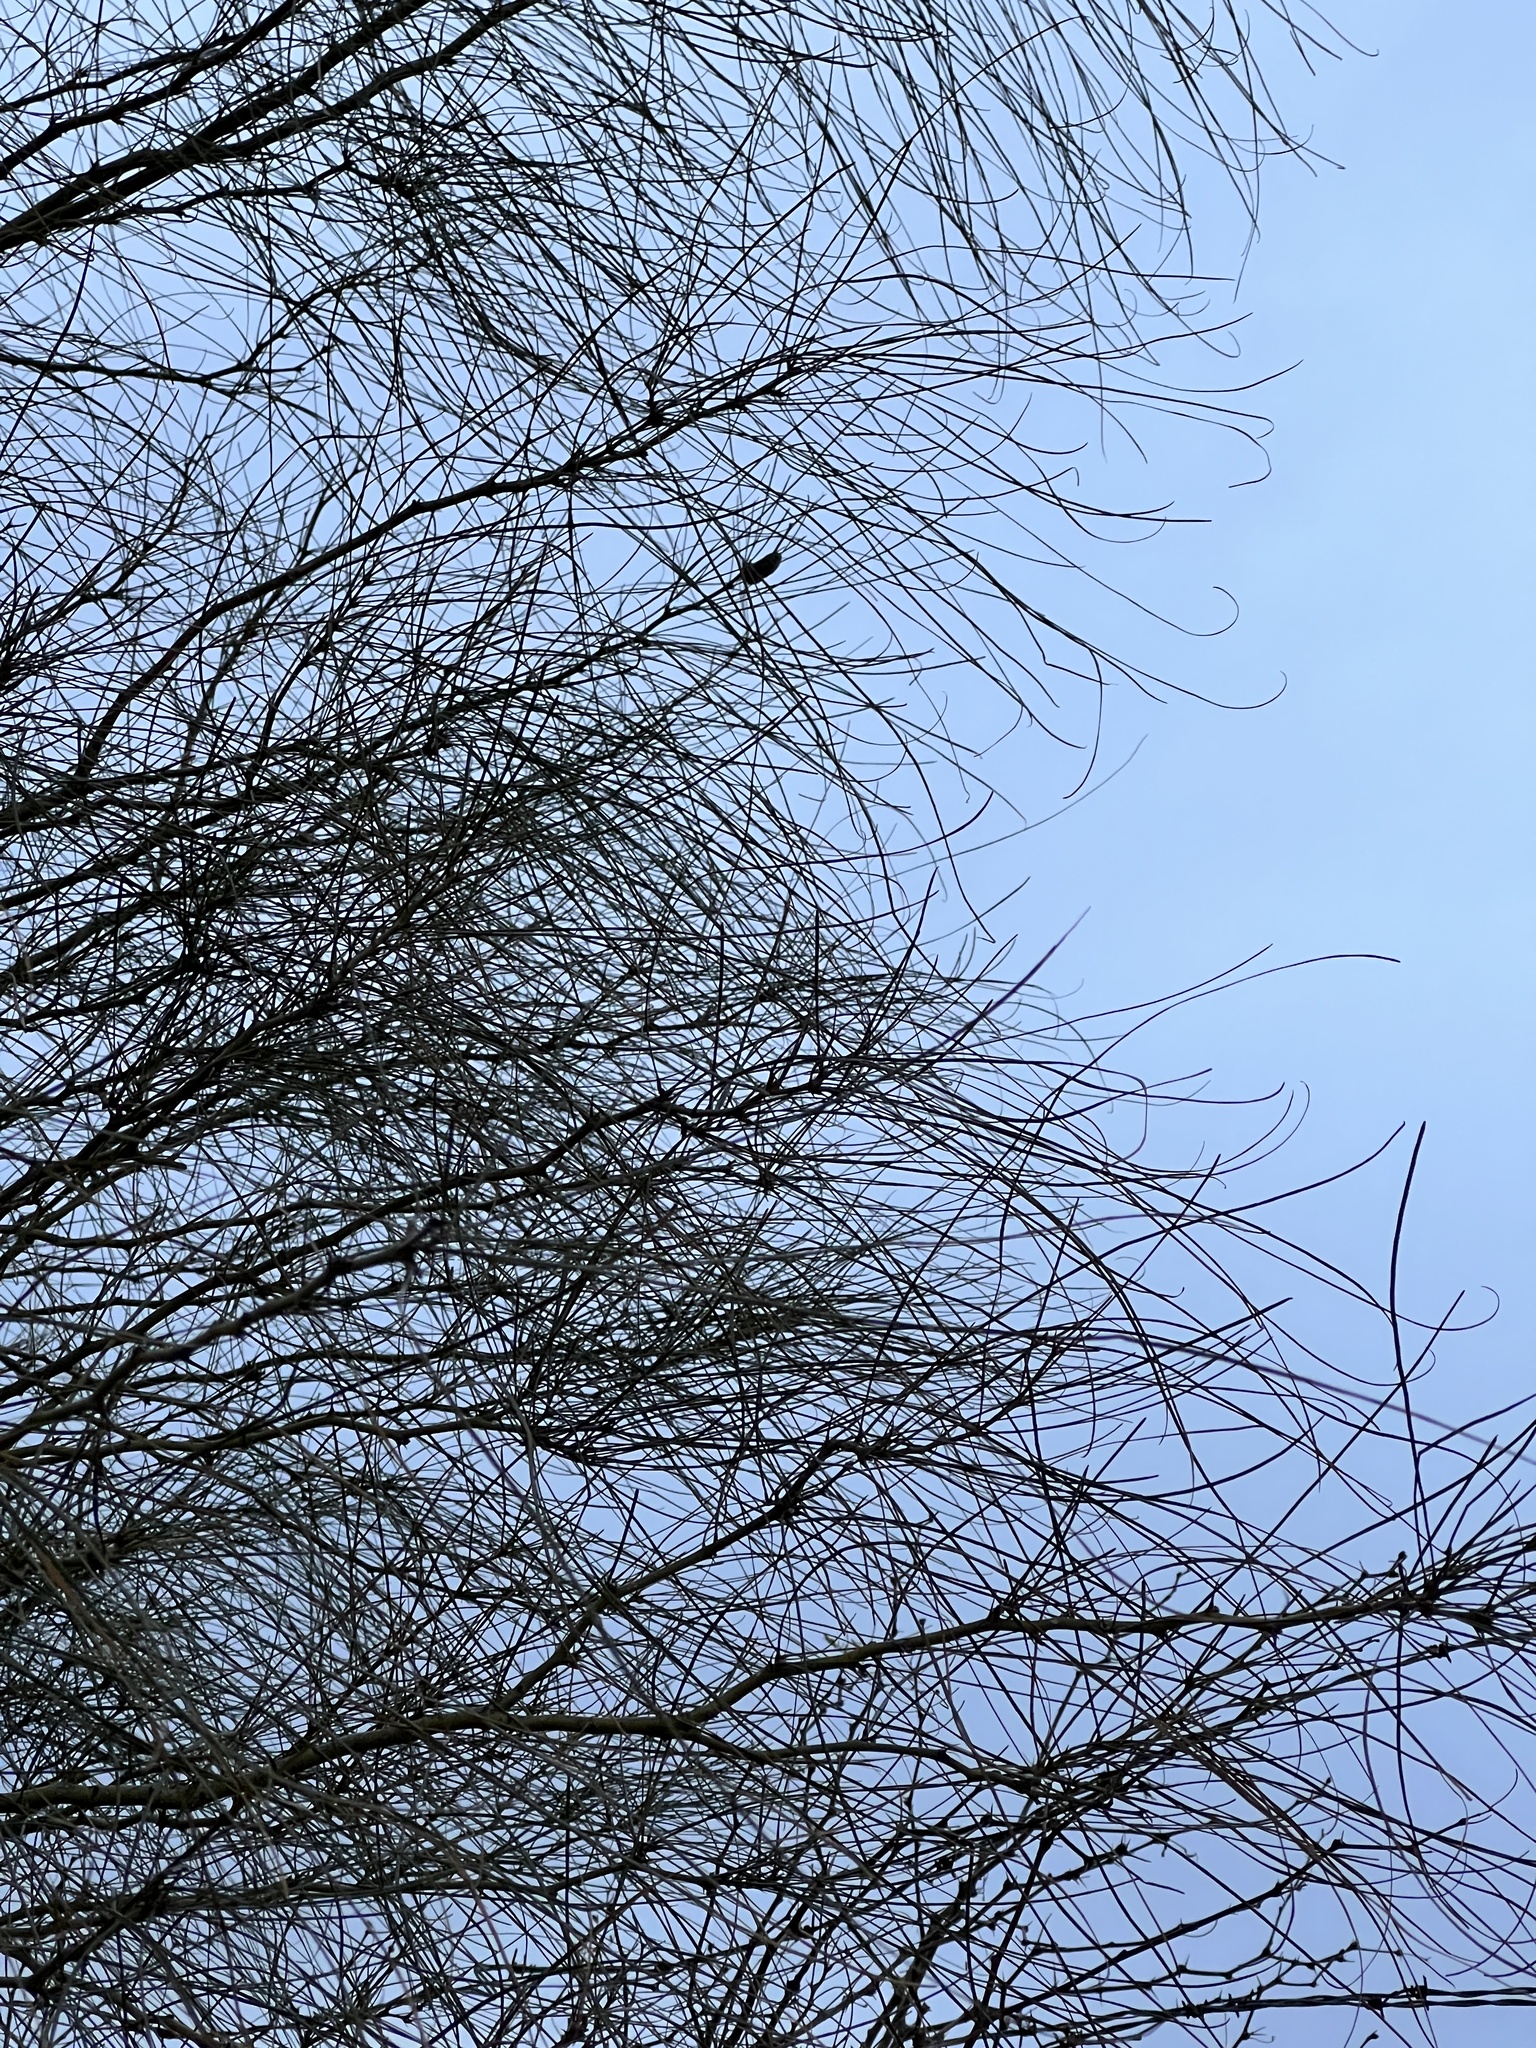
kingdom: Plantae
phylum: Tracheophyta
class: Magnoliopsida
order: Fabales
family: Fabaceae
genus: Parkinsonia
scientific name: Parkinsonia aculeata
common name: Jerusalem thorn
